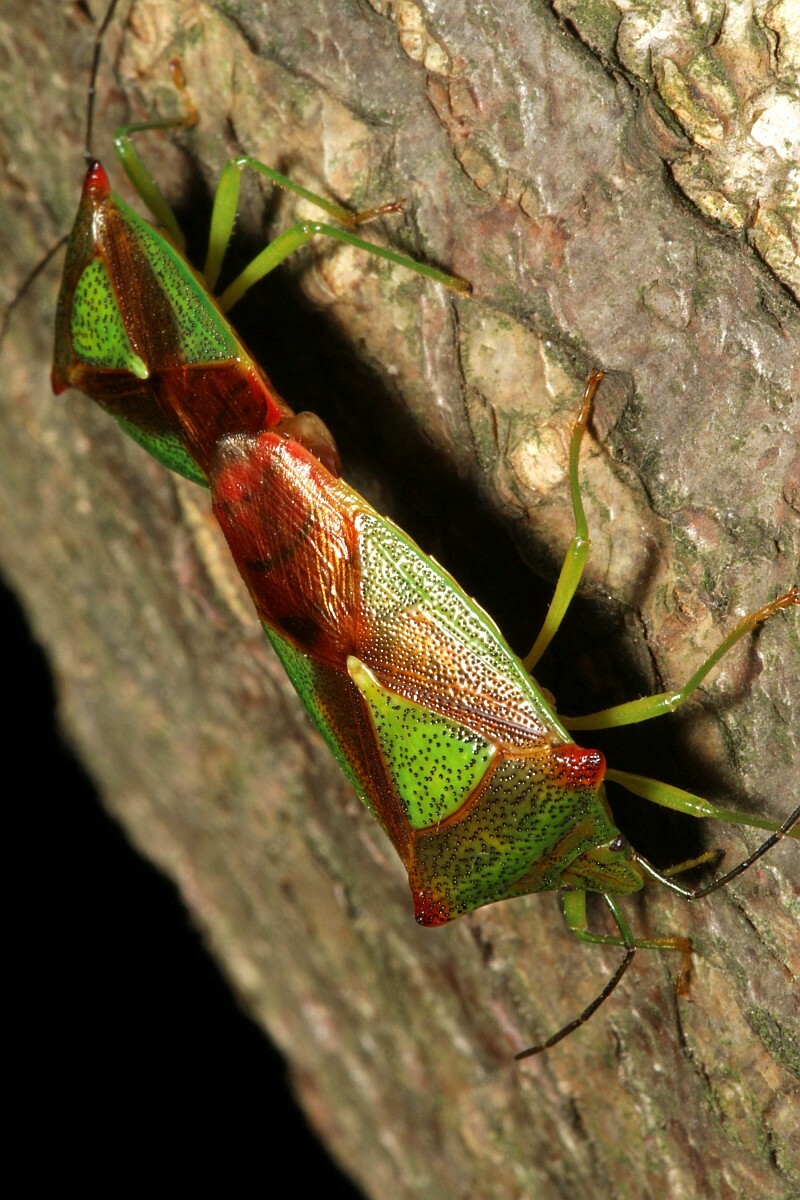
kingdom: Animalia
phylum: Arthropoda
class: Insecta
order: Hemiptera
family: Acanthosomatidae
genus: Acanthosoma
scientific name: Acanthosoma haemorrhoidale
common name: Hawthorn shieldbug
